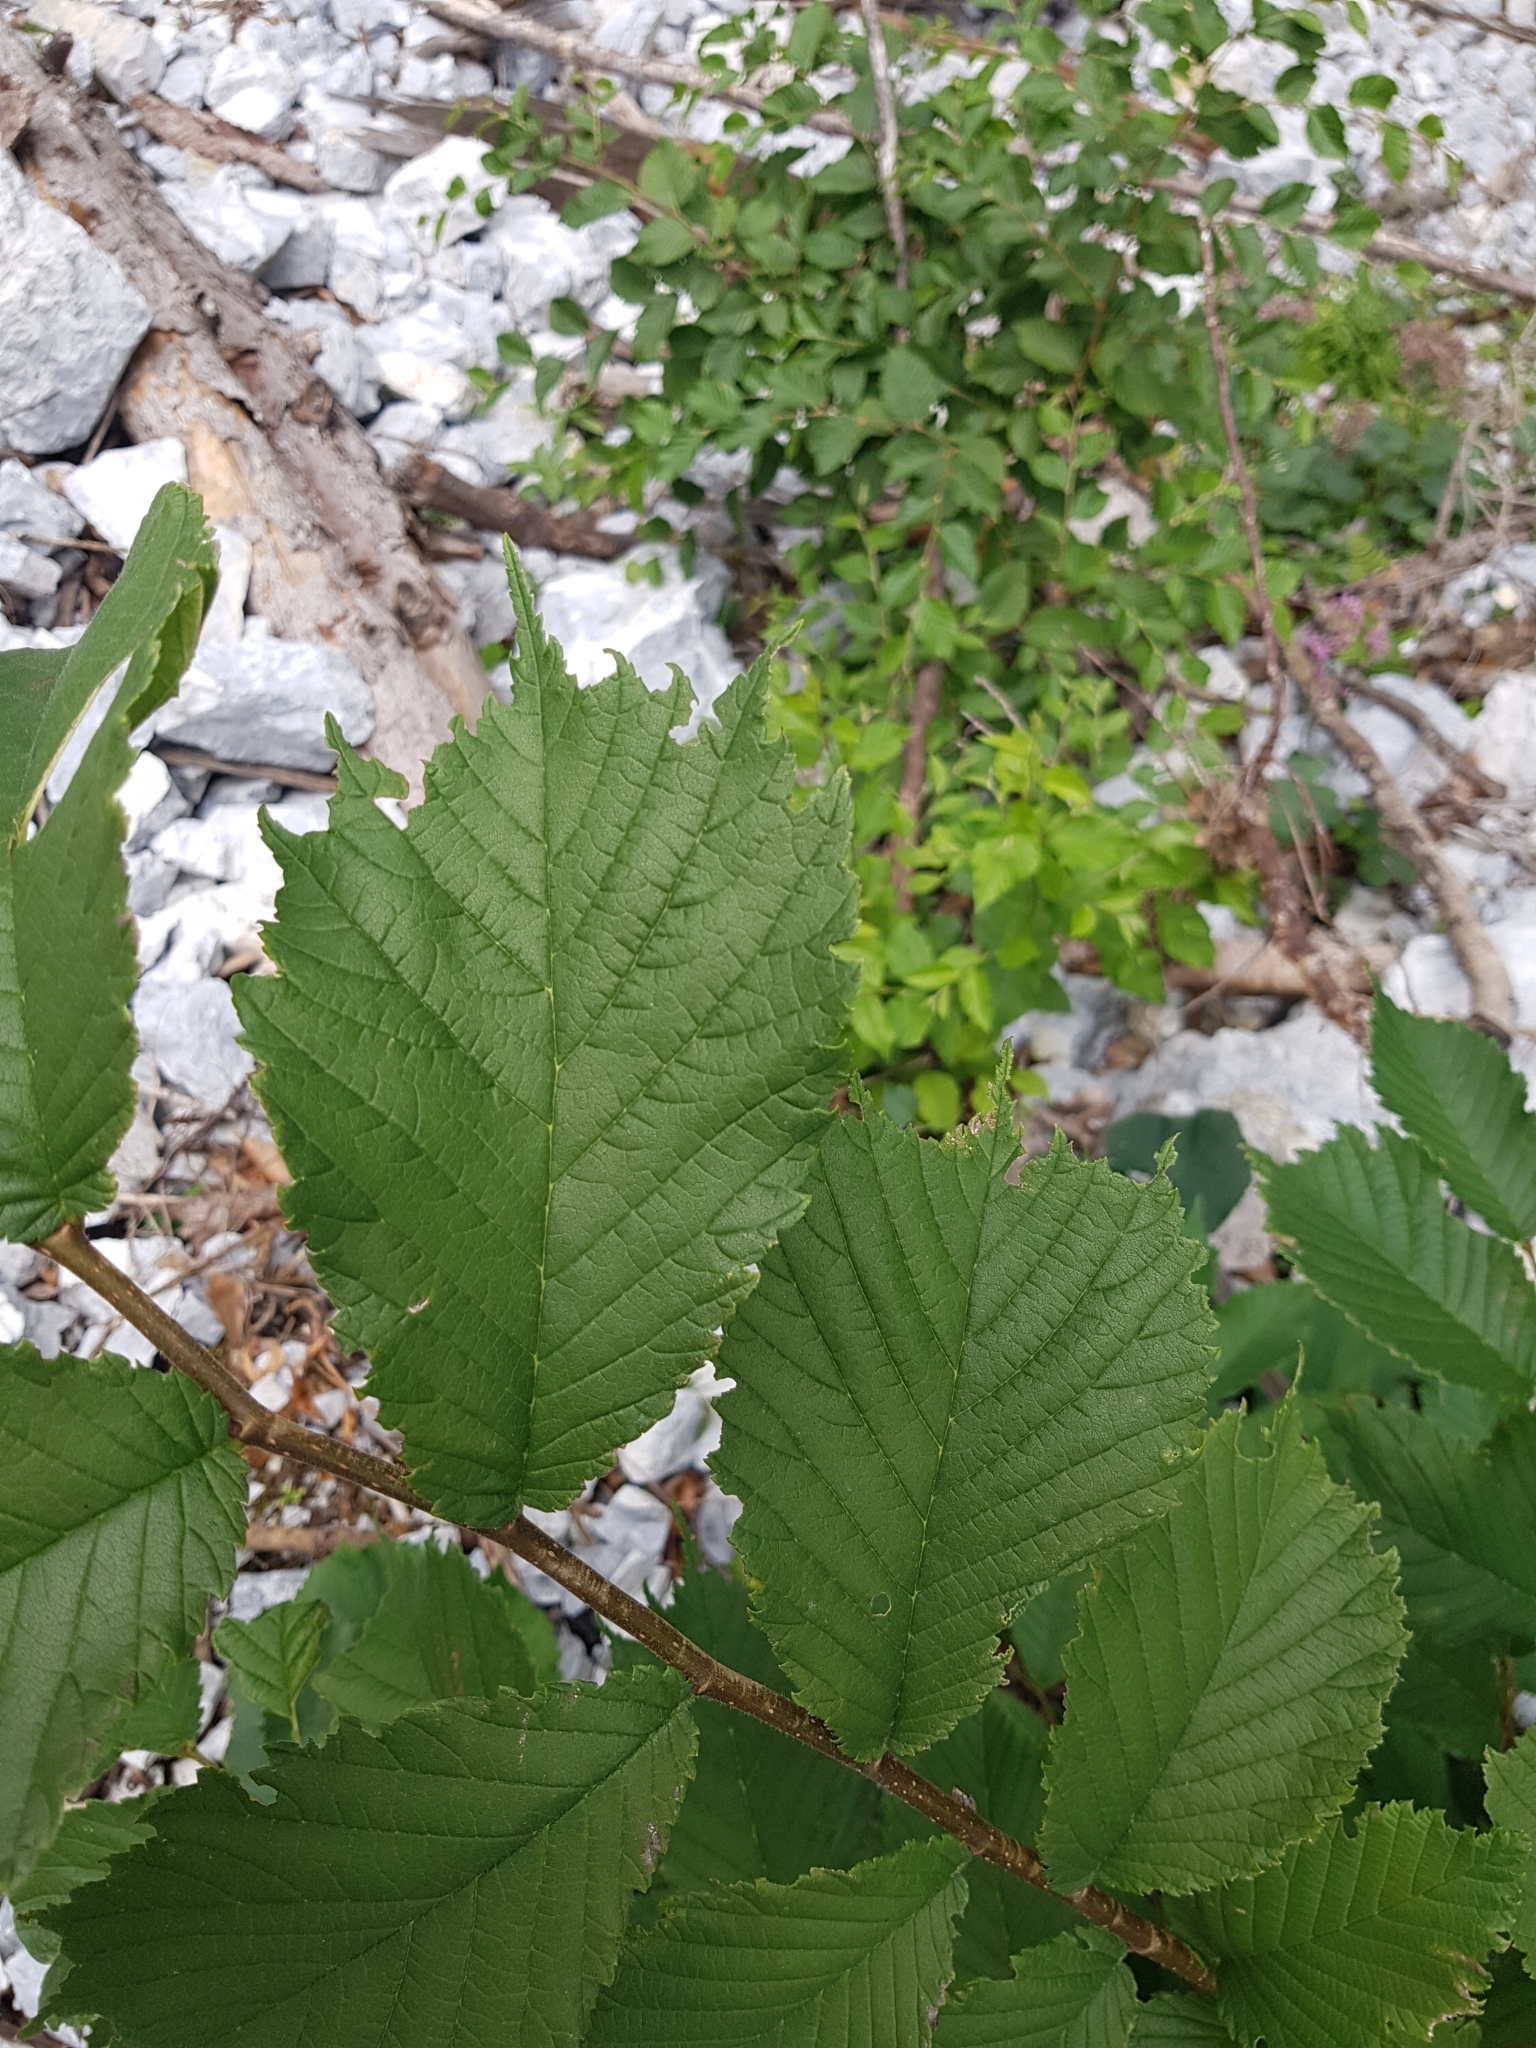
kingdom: Plantae
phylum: Tracheophyta
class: Magnoliopsida
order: Rosales
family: Ulmaceae
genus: Ulmus
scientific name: Ulmus glabra
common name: Wych elm
